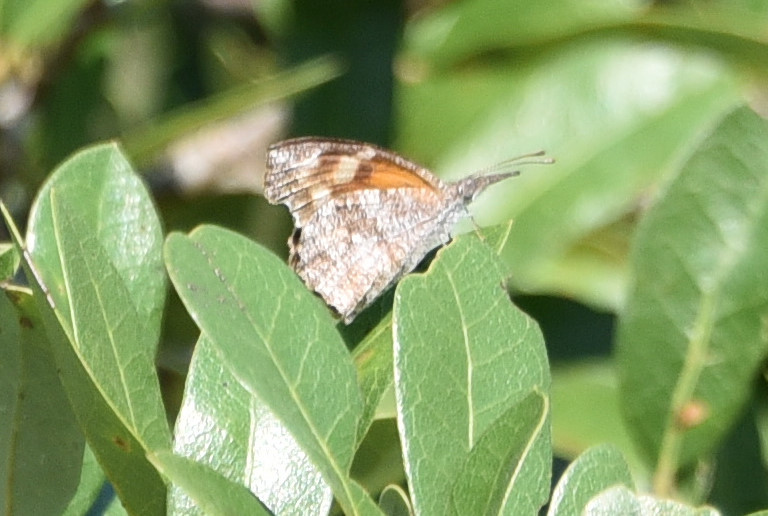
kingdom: Animalia
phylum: Arthropoda
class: Insecta
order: Lepidoptera
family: Nymphalidae
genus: Libytheana
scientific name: Libytheana carinenta
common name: American snout
